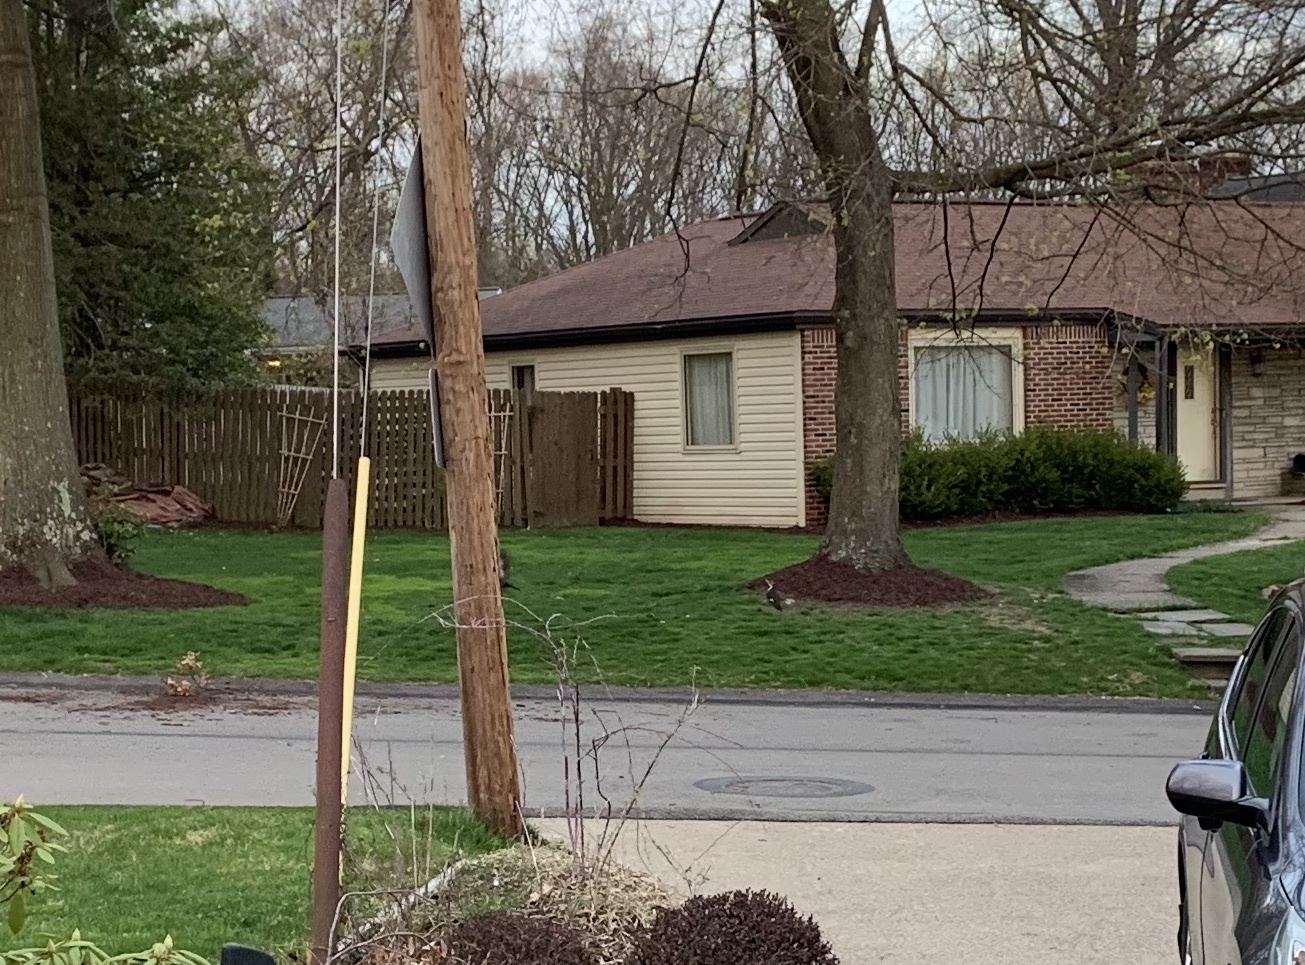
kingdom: Animalia
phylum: Chordata
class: Aves
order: Piciformes
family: Picidae
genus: Dryocopus
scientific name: Dryocopus pileatus
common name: Pileated woodpecker
